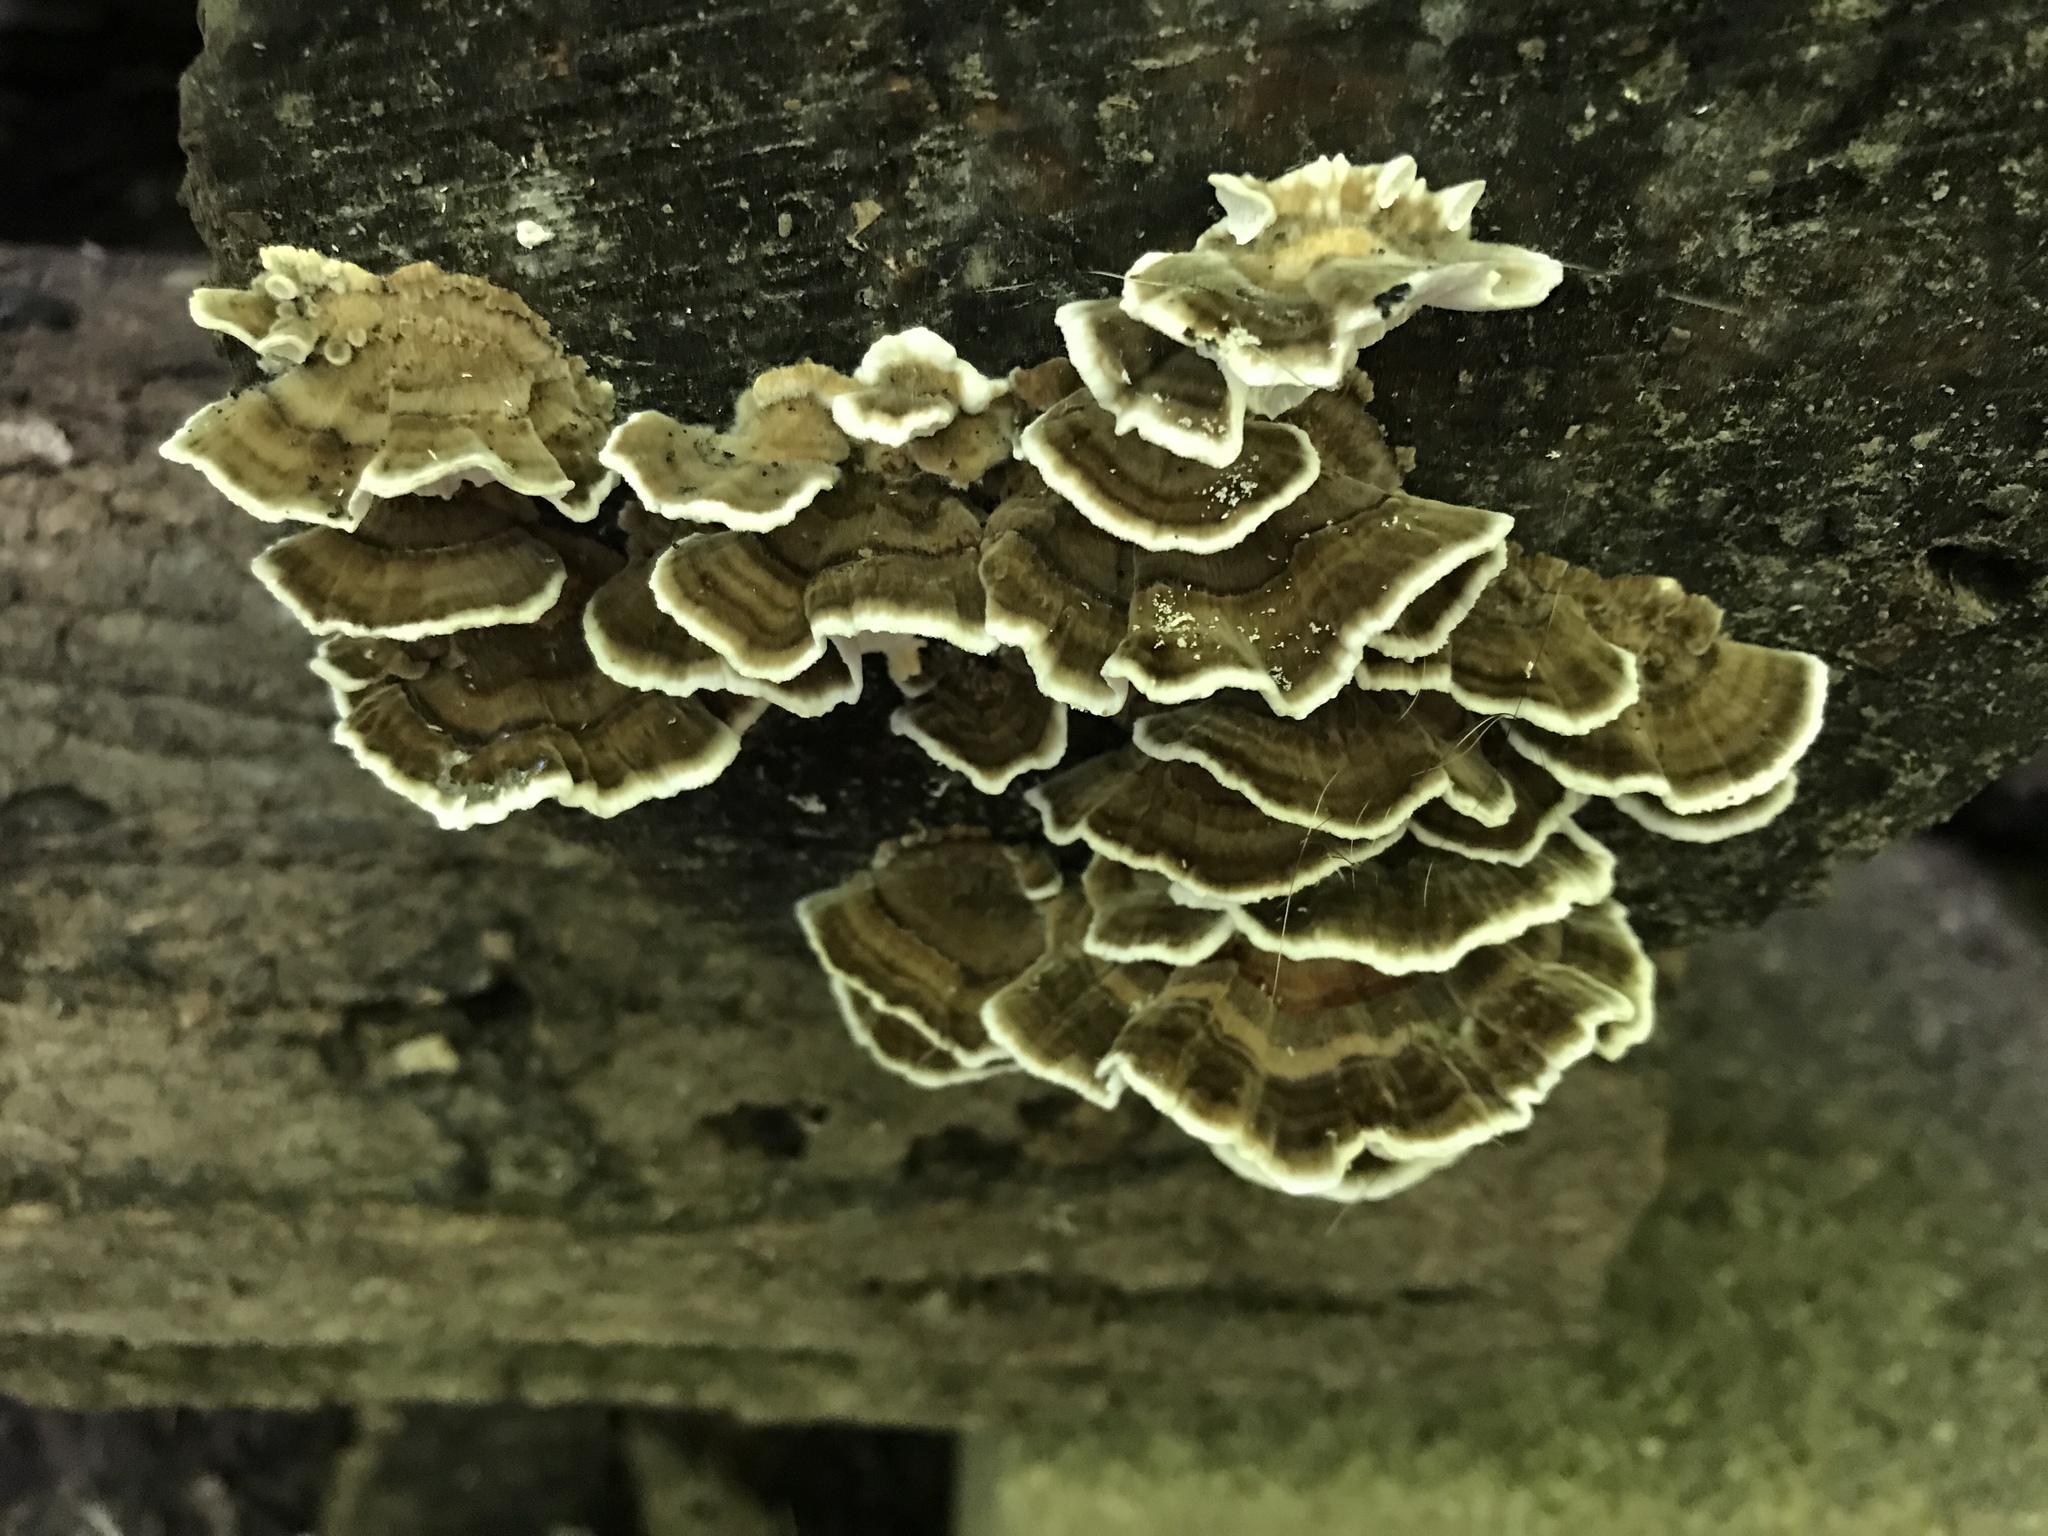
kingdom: Fungi
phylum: Basidiomycota
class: Agaricomycetes
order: Polyporales
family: Polyporaceae
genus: Trametes
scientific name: Trametes versicolor
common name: Turkeytail
